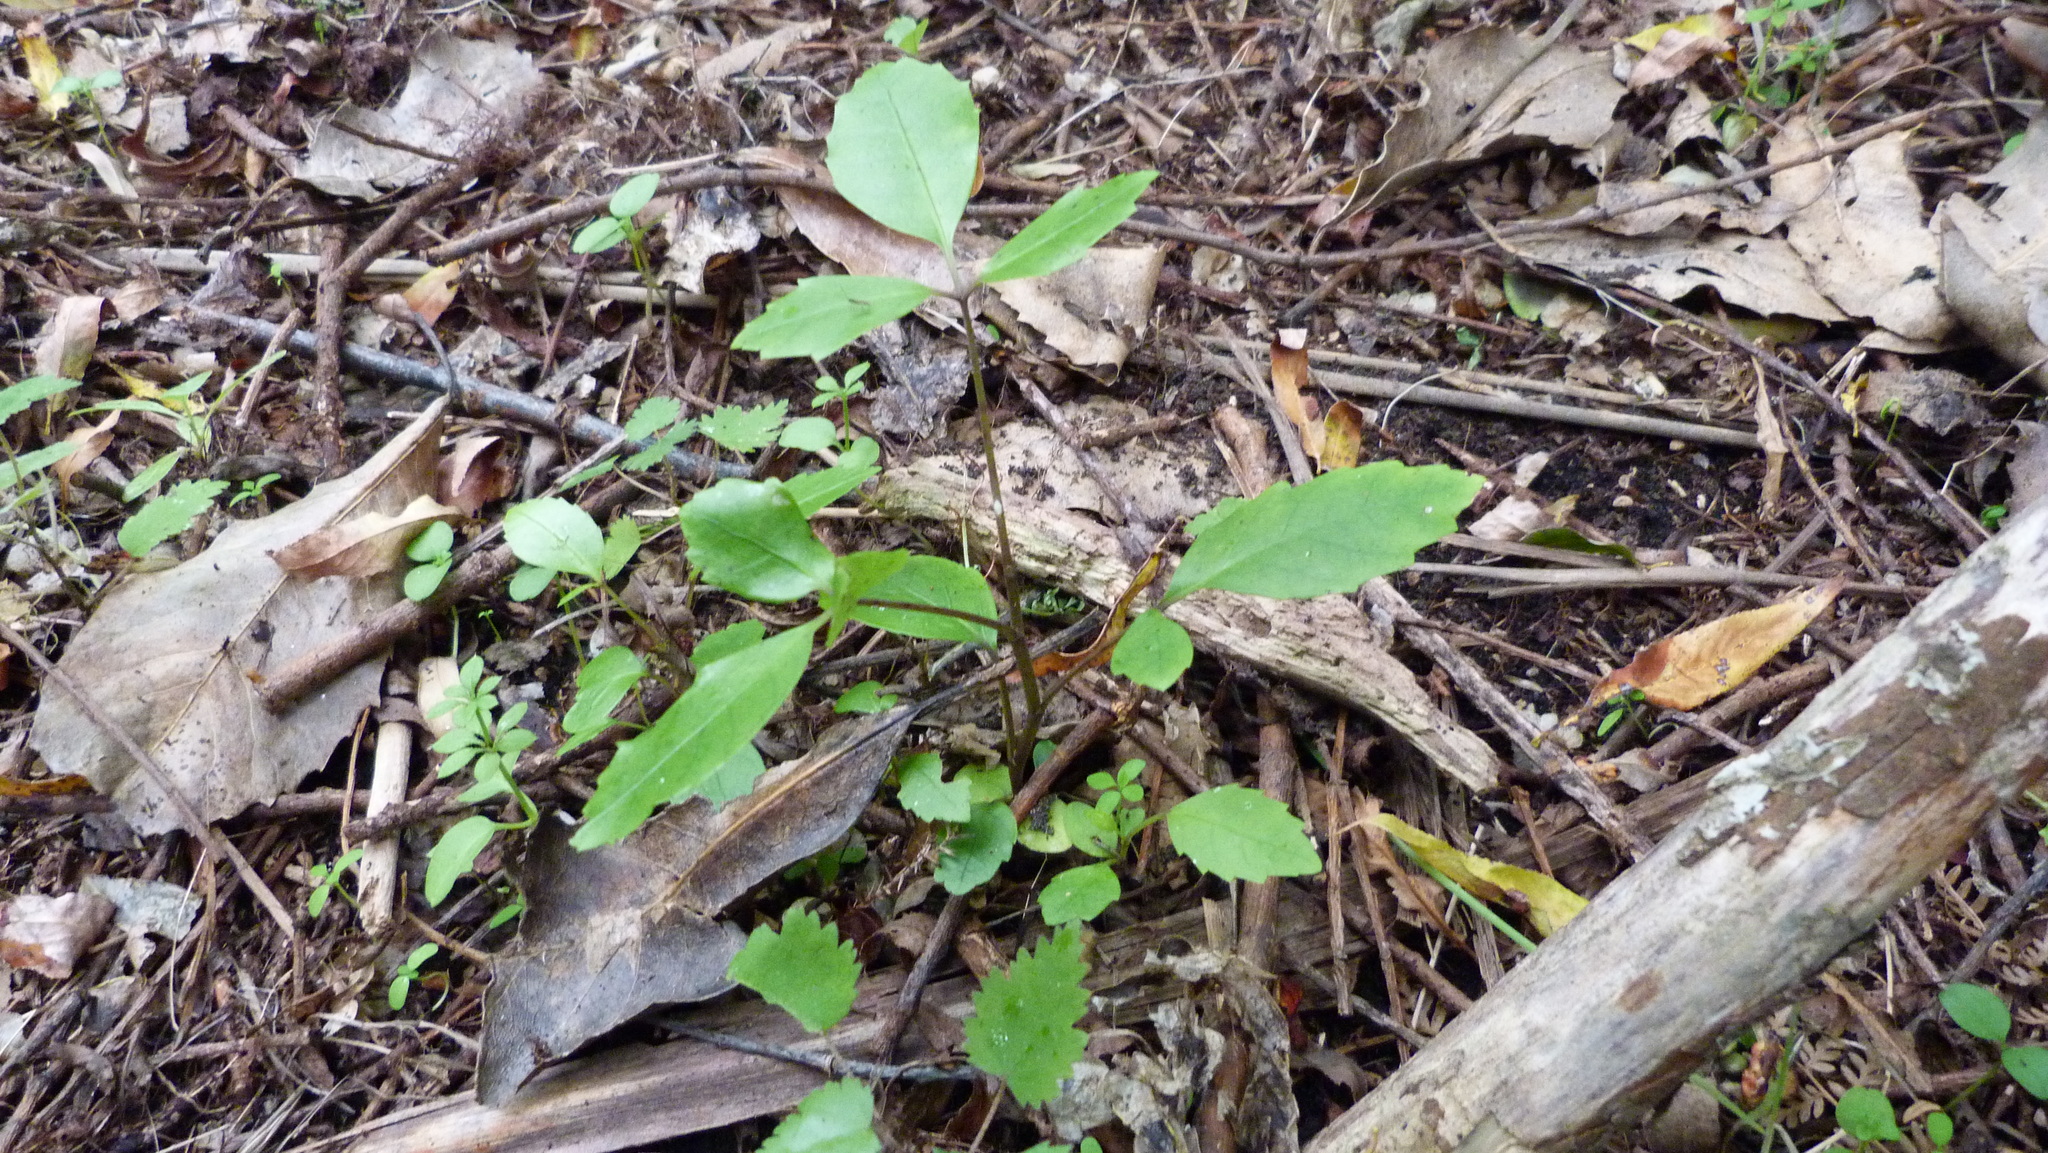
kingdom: Plantae
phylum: Tracheophyta
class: Magnoliopsida
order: Apiales
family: Araliaceae
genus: Neopanax
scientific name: Neopanax arboreus
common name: Five-fingers
